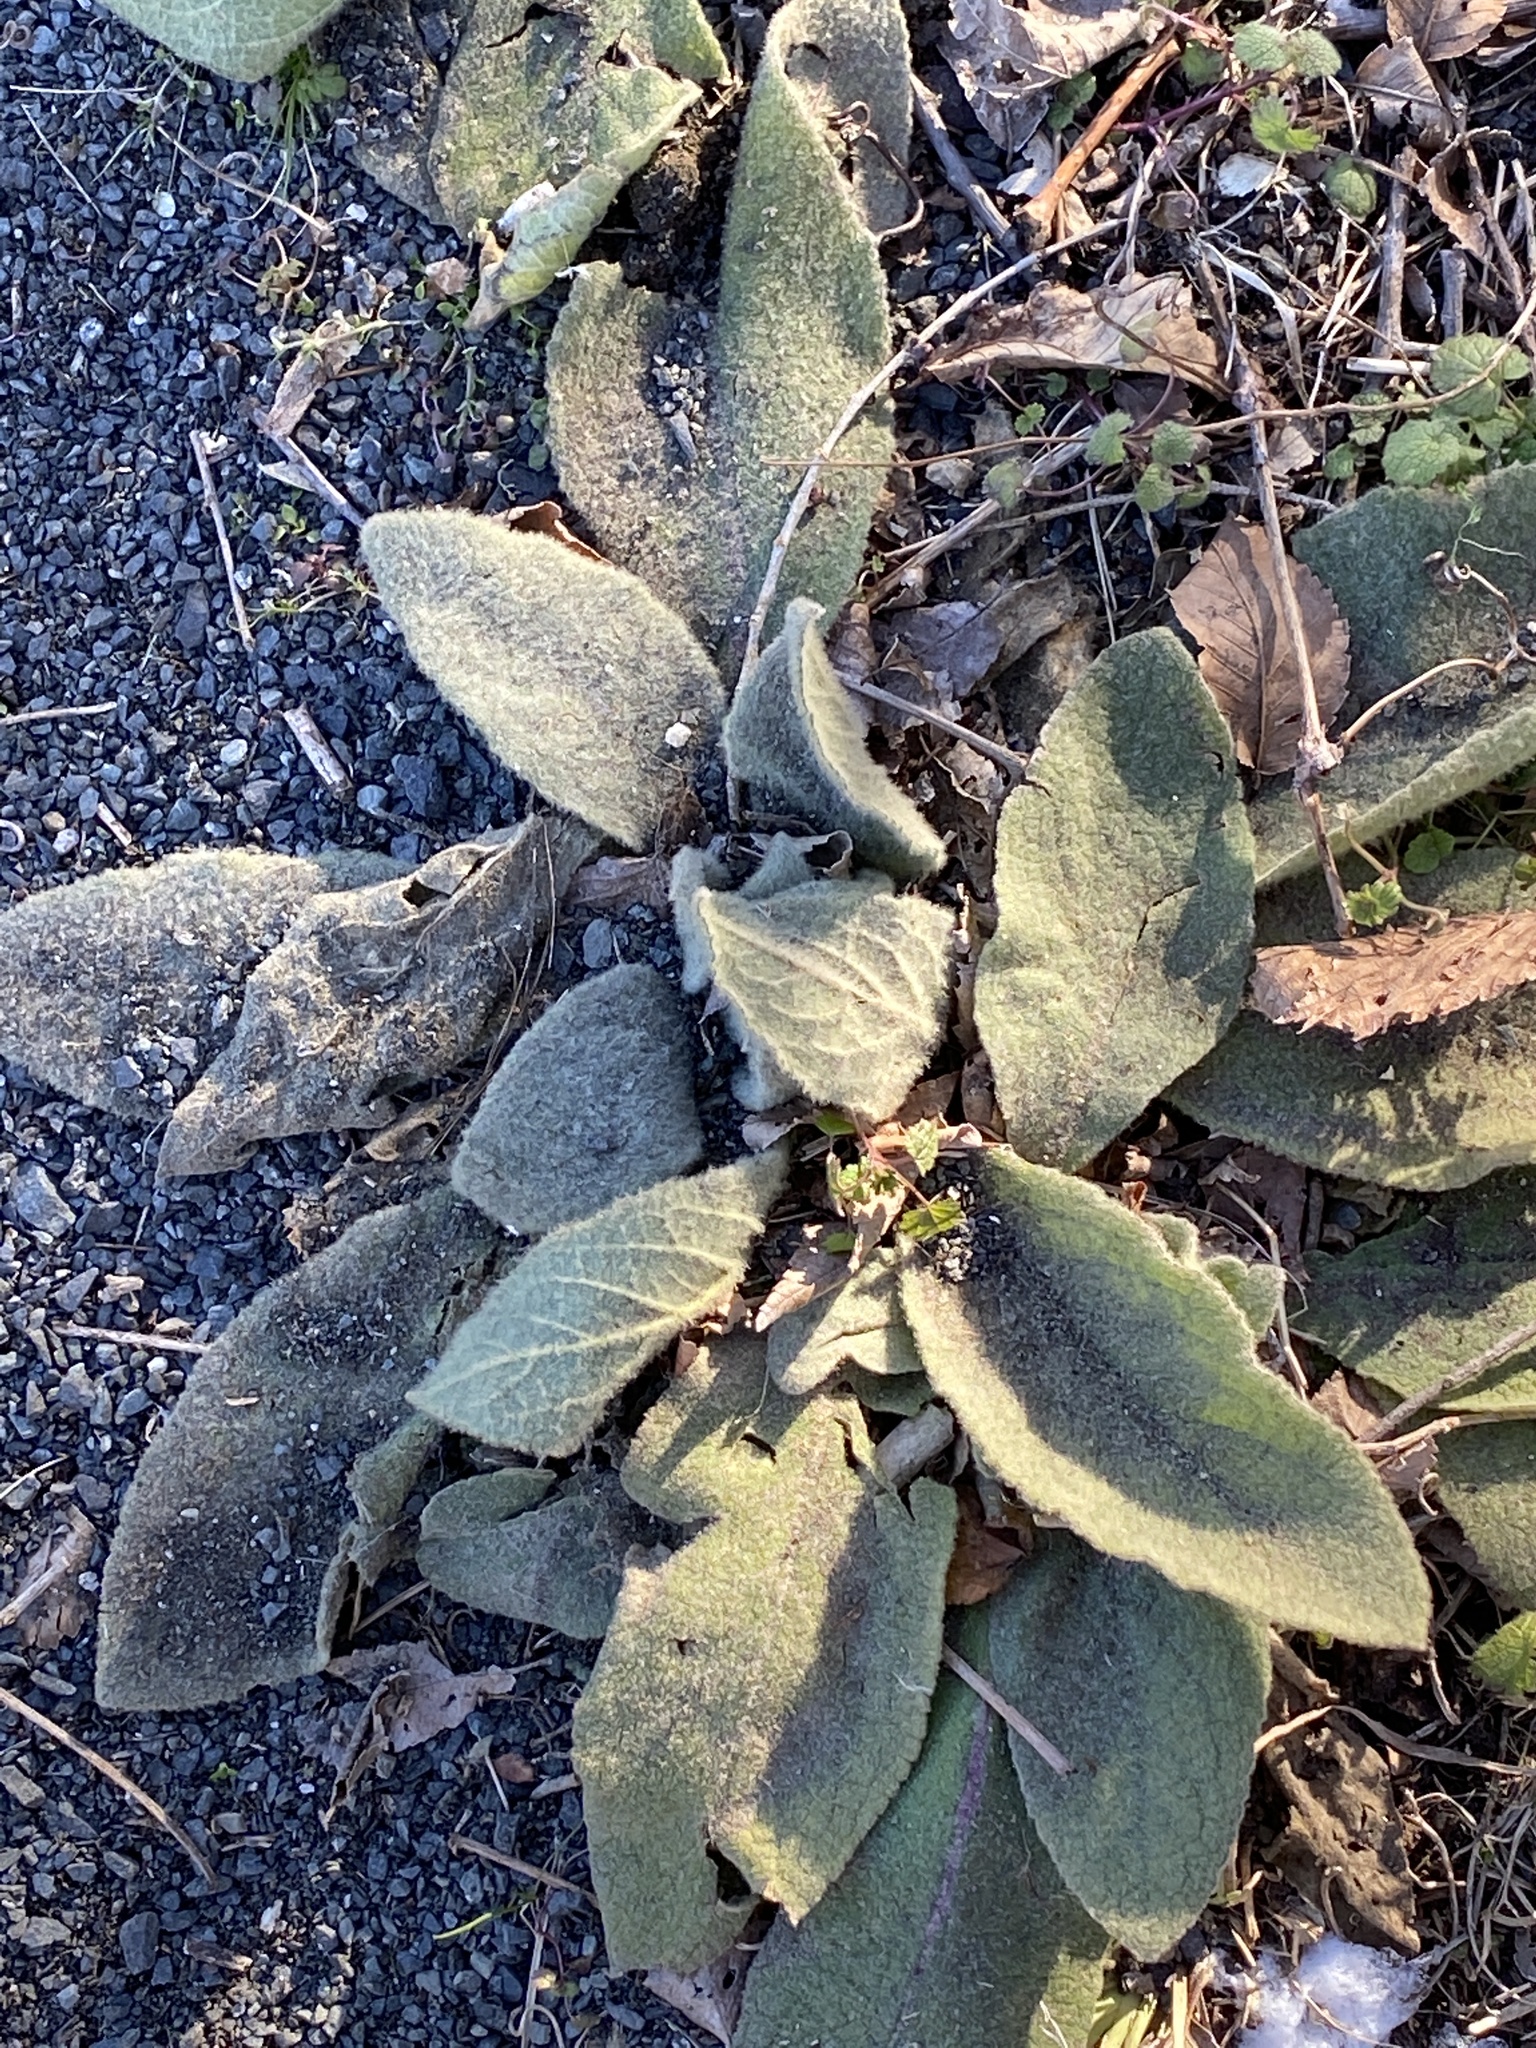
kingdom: Plantae
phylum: Tracheophyta
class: Magnoliopsida
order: Lamiales
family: Scrophulariaceae
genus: Verbascum
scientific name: Verbascum thapsus
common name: Common mullein
